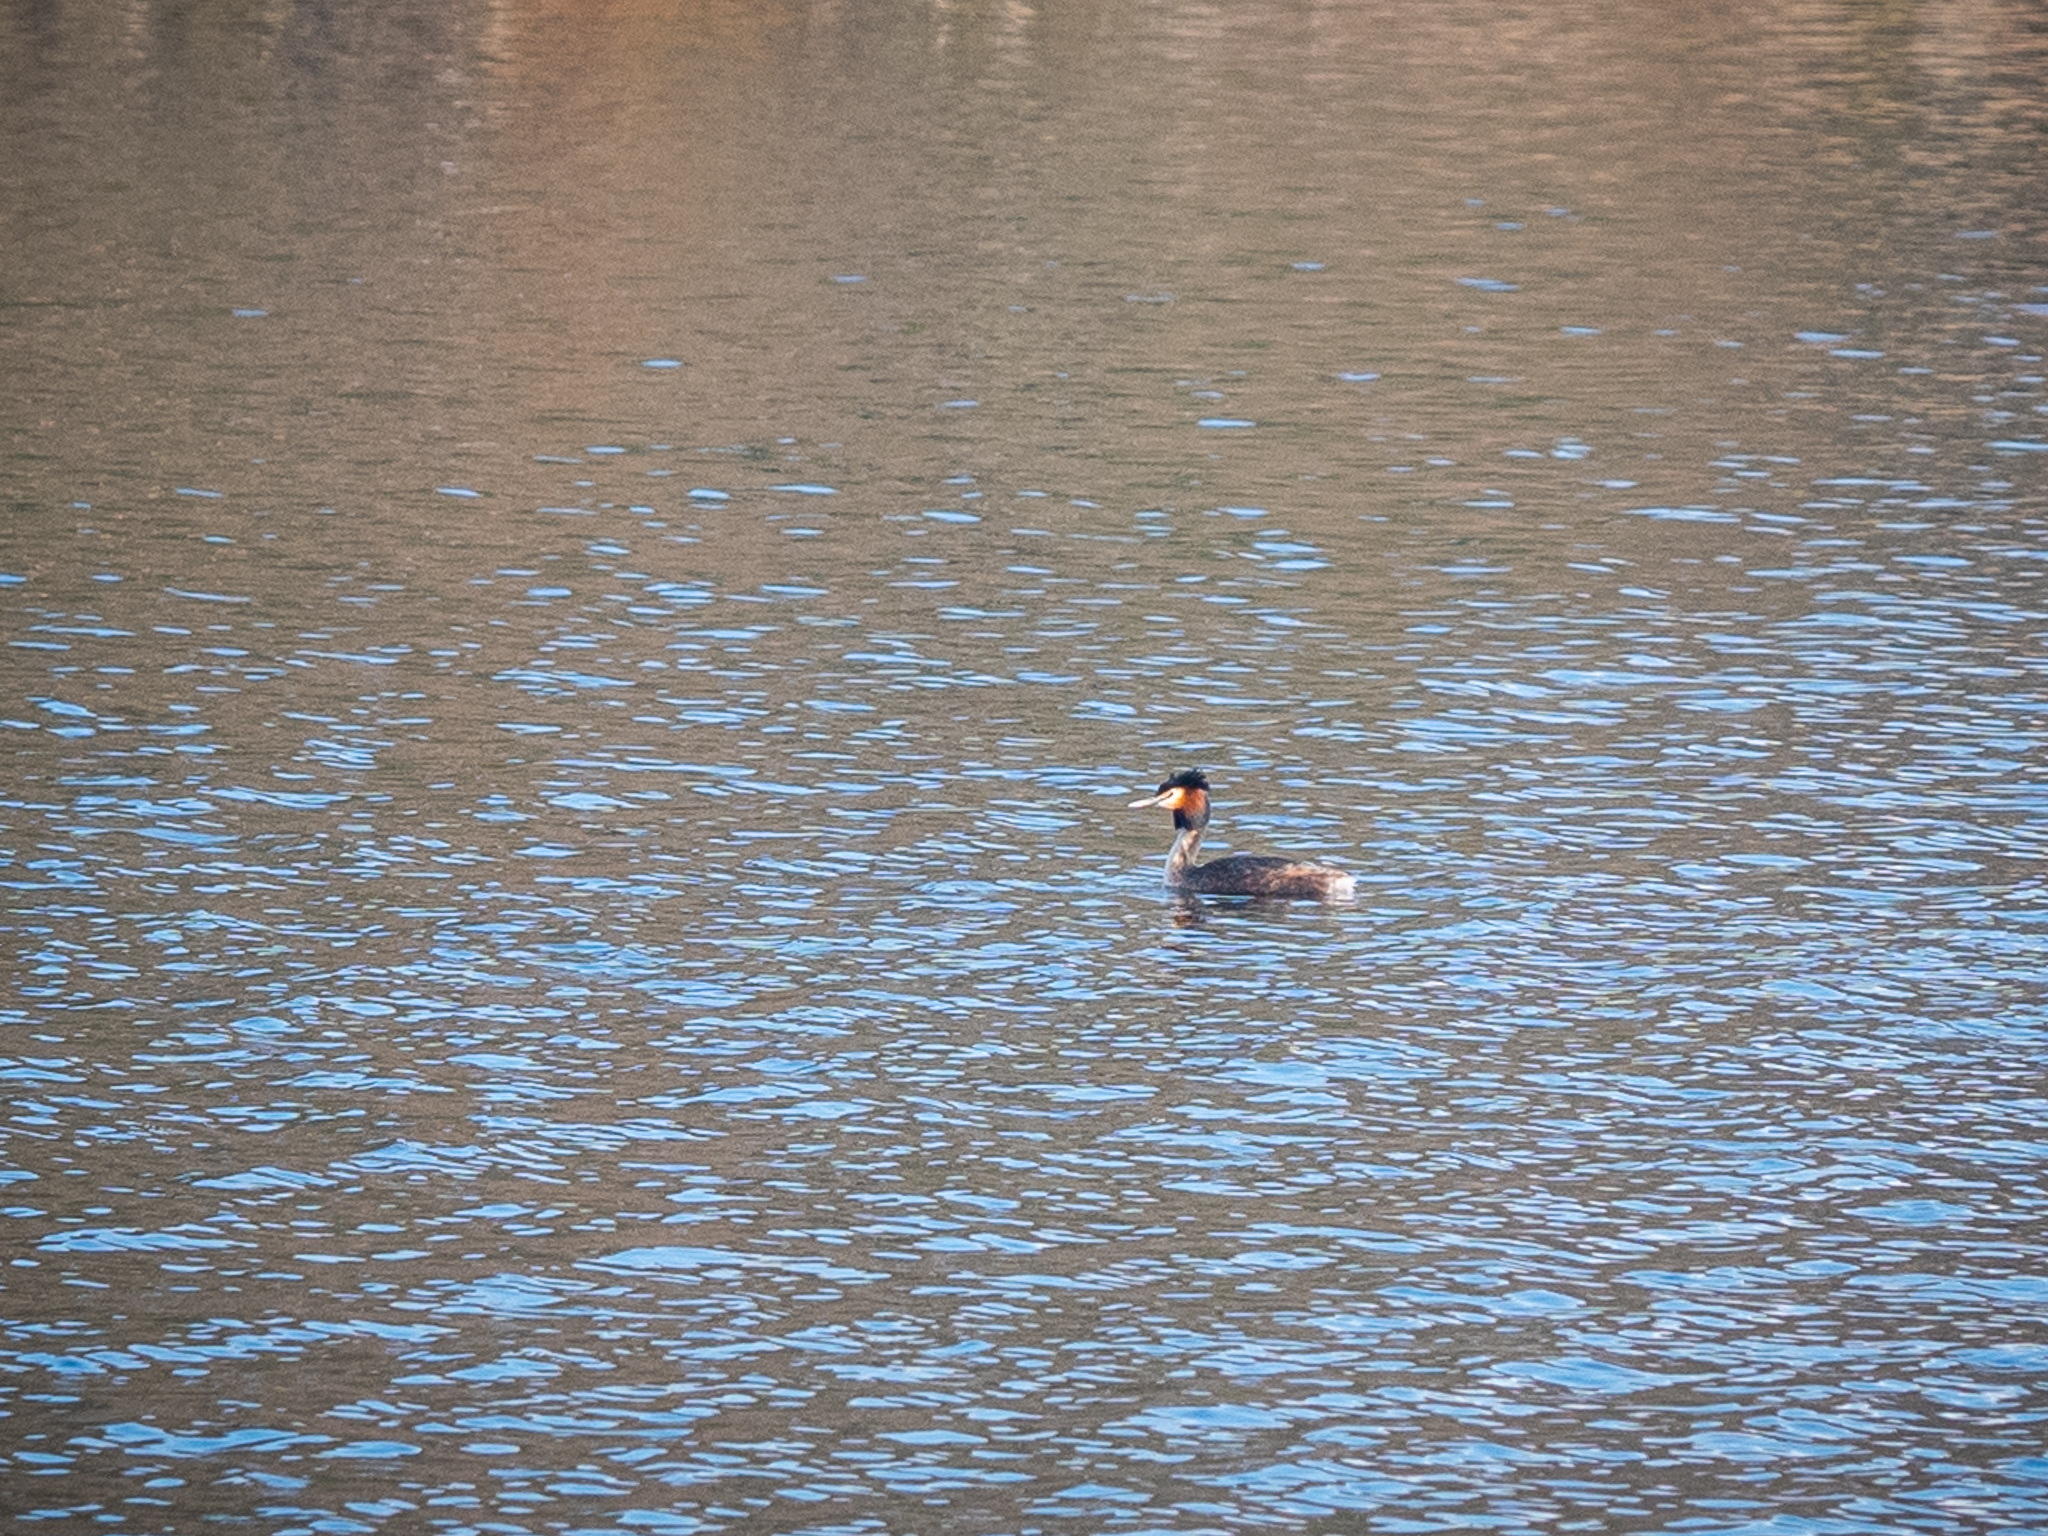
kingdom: Animalia
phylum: Chordata
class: Aves
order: Podicipediformes
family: Podicipedidae
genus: Podiceps
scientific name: Podiceps cristatus
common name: Great crested grebe
